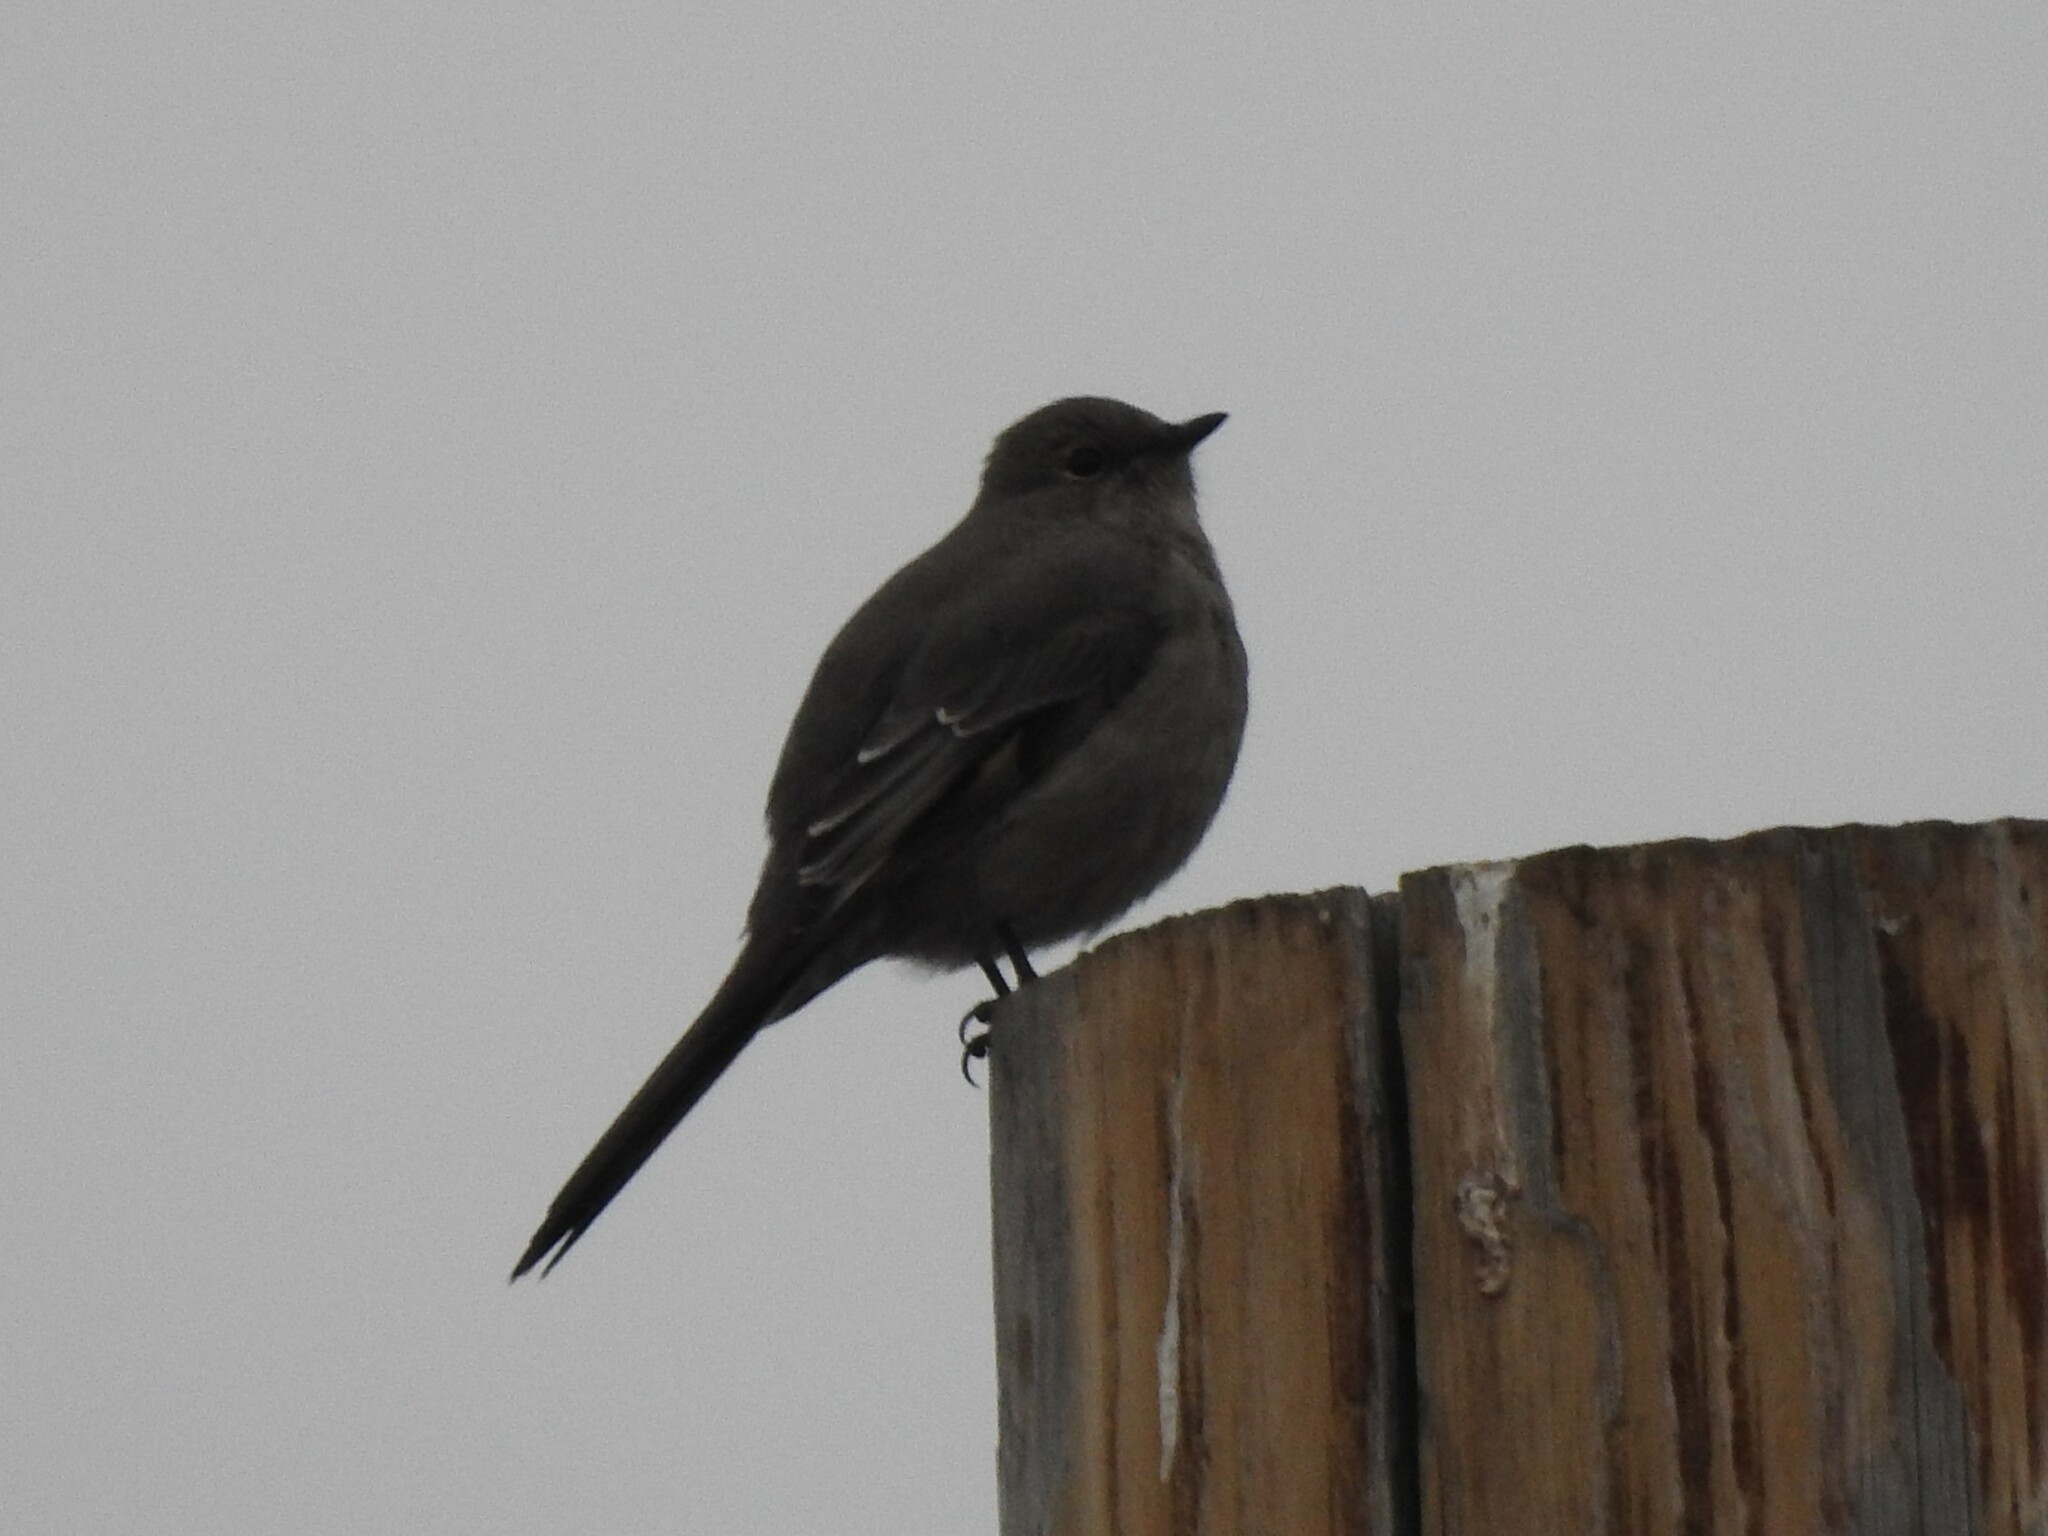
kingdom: Animalia
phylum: Chordata
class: Aves
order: Passeriformes
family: Turdidae
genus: Myadestes
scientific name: Myadestes townsendi
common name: Townsend's solitaire
